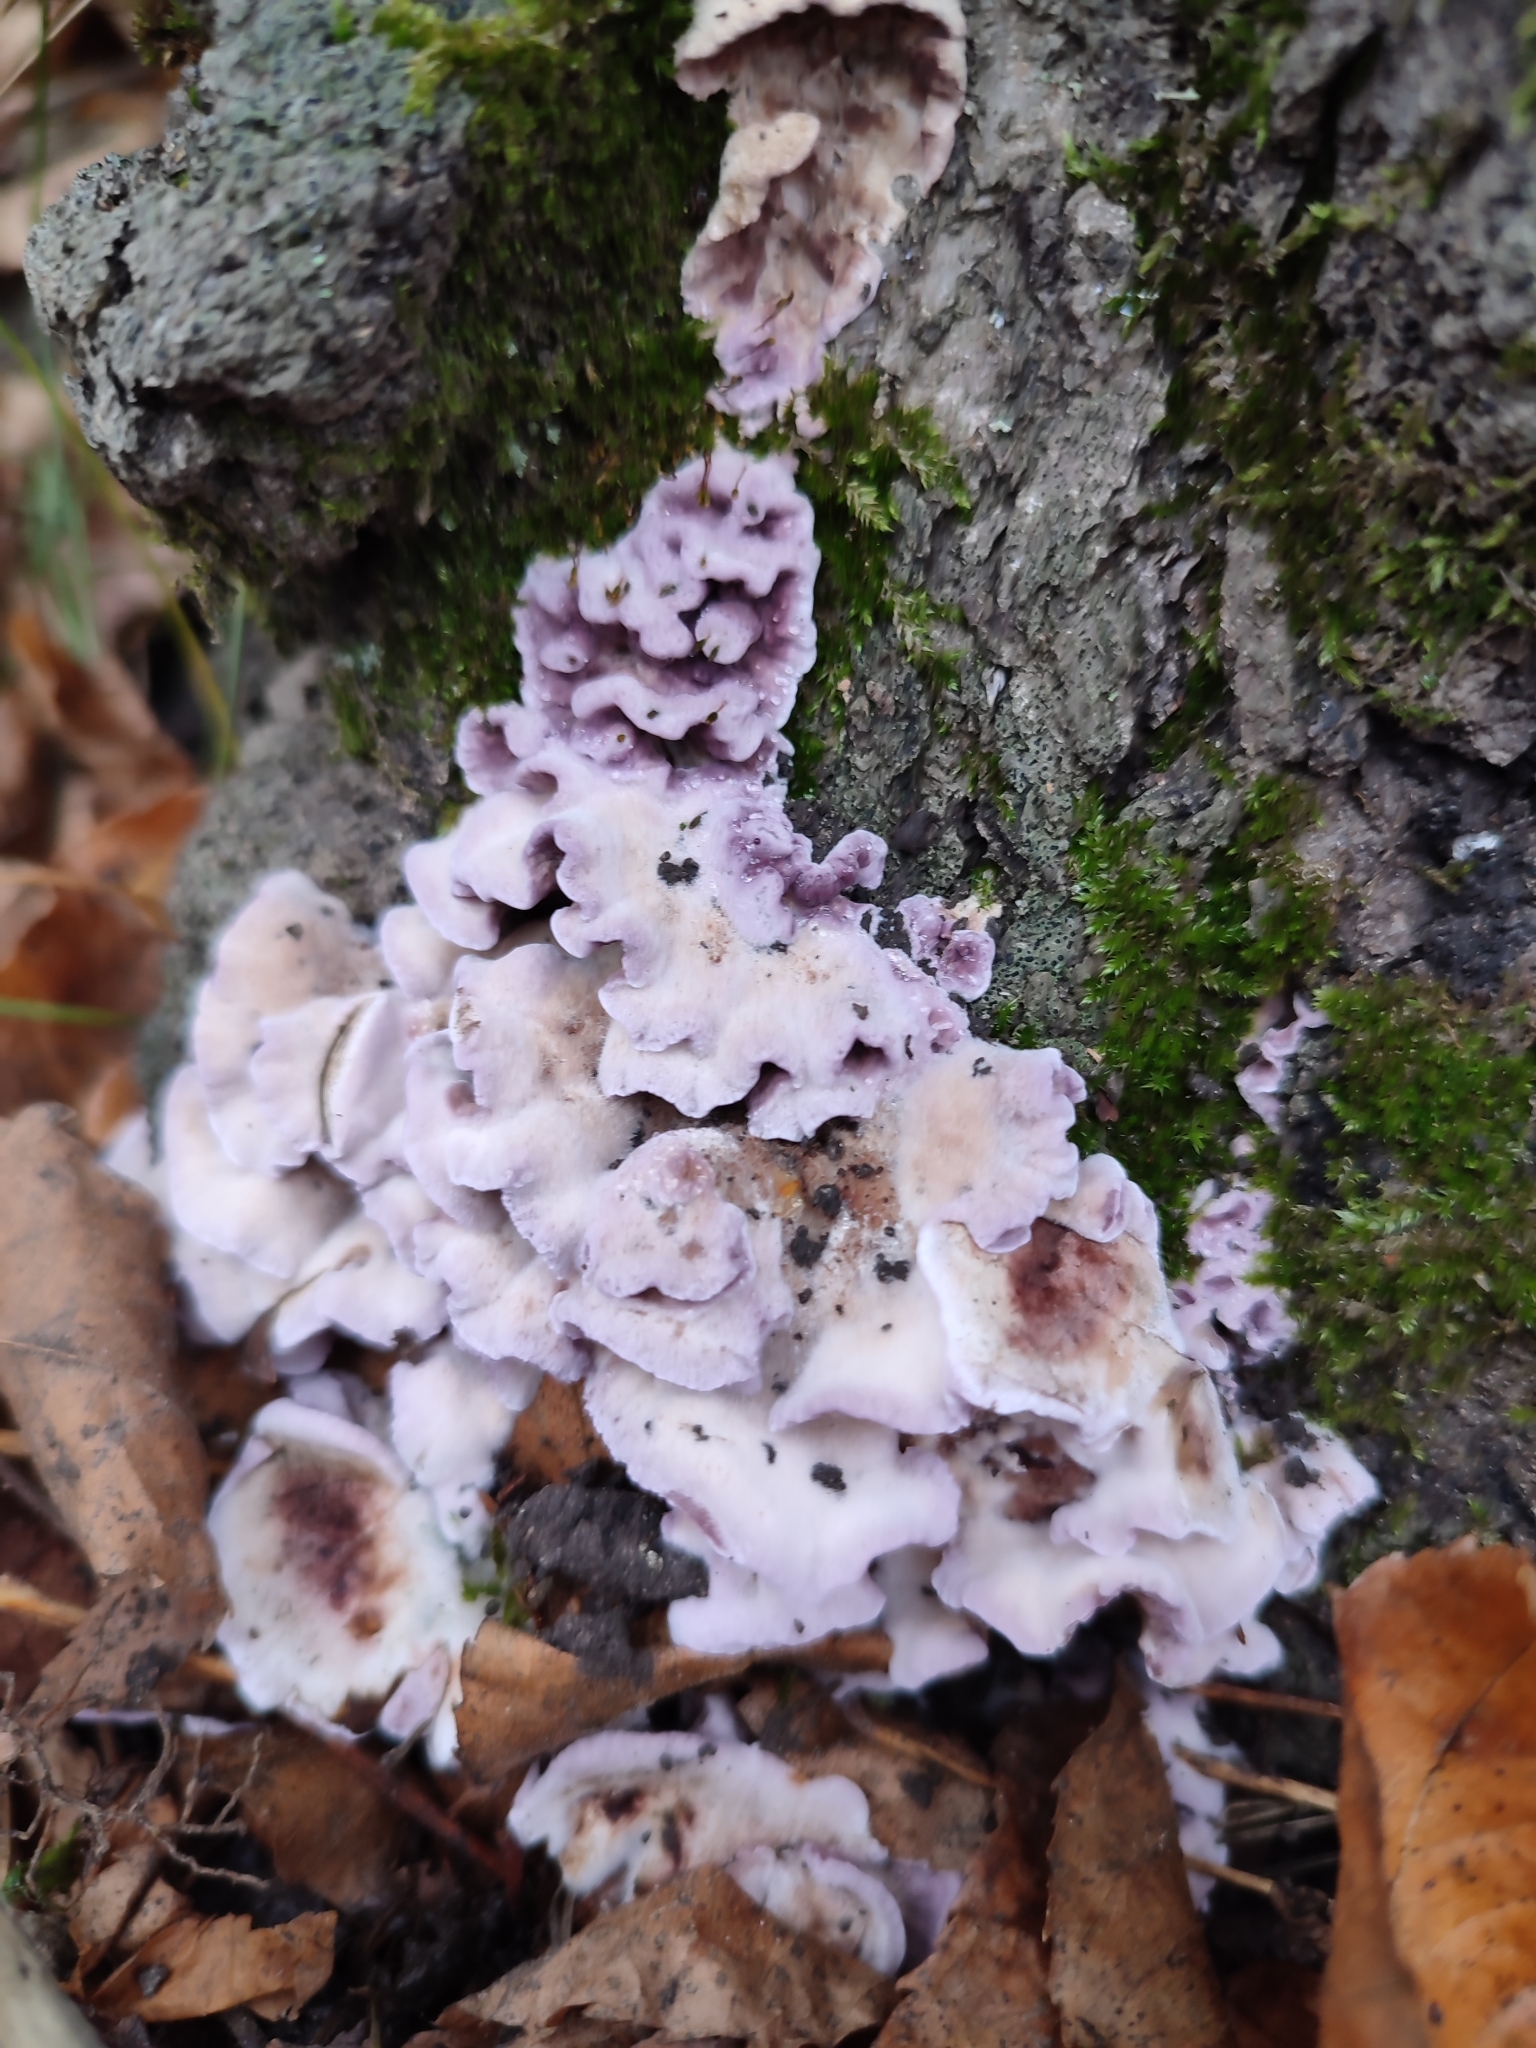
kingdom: Fungi
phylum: Basidiomycota
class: Agaricomycetes
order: Agaricales
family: Cyphellaceae
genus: Chondrostereum
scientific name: Chondrostereum purpureum
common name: Silver leaf disease
